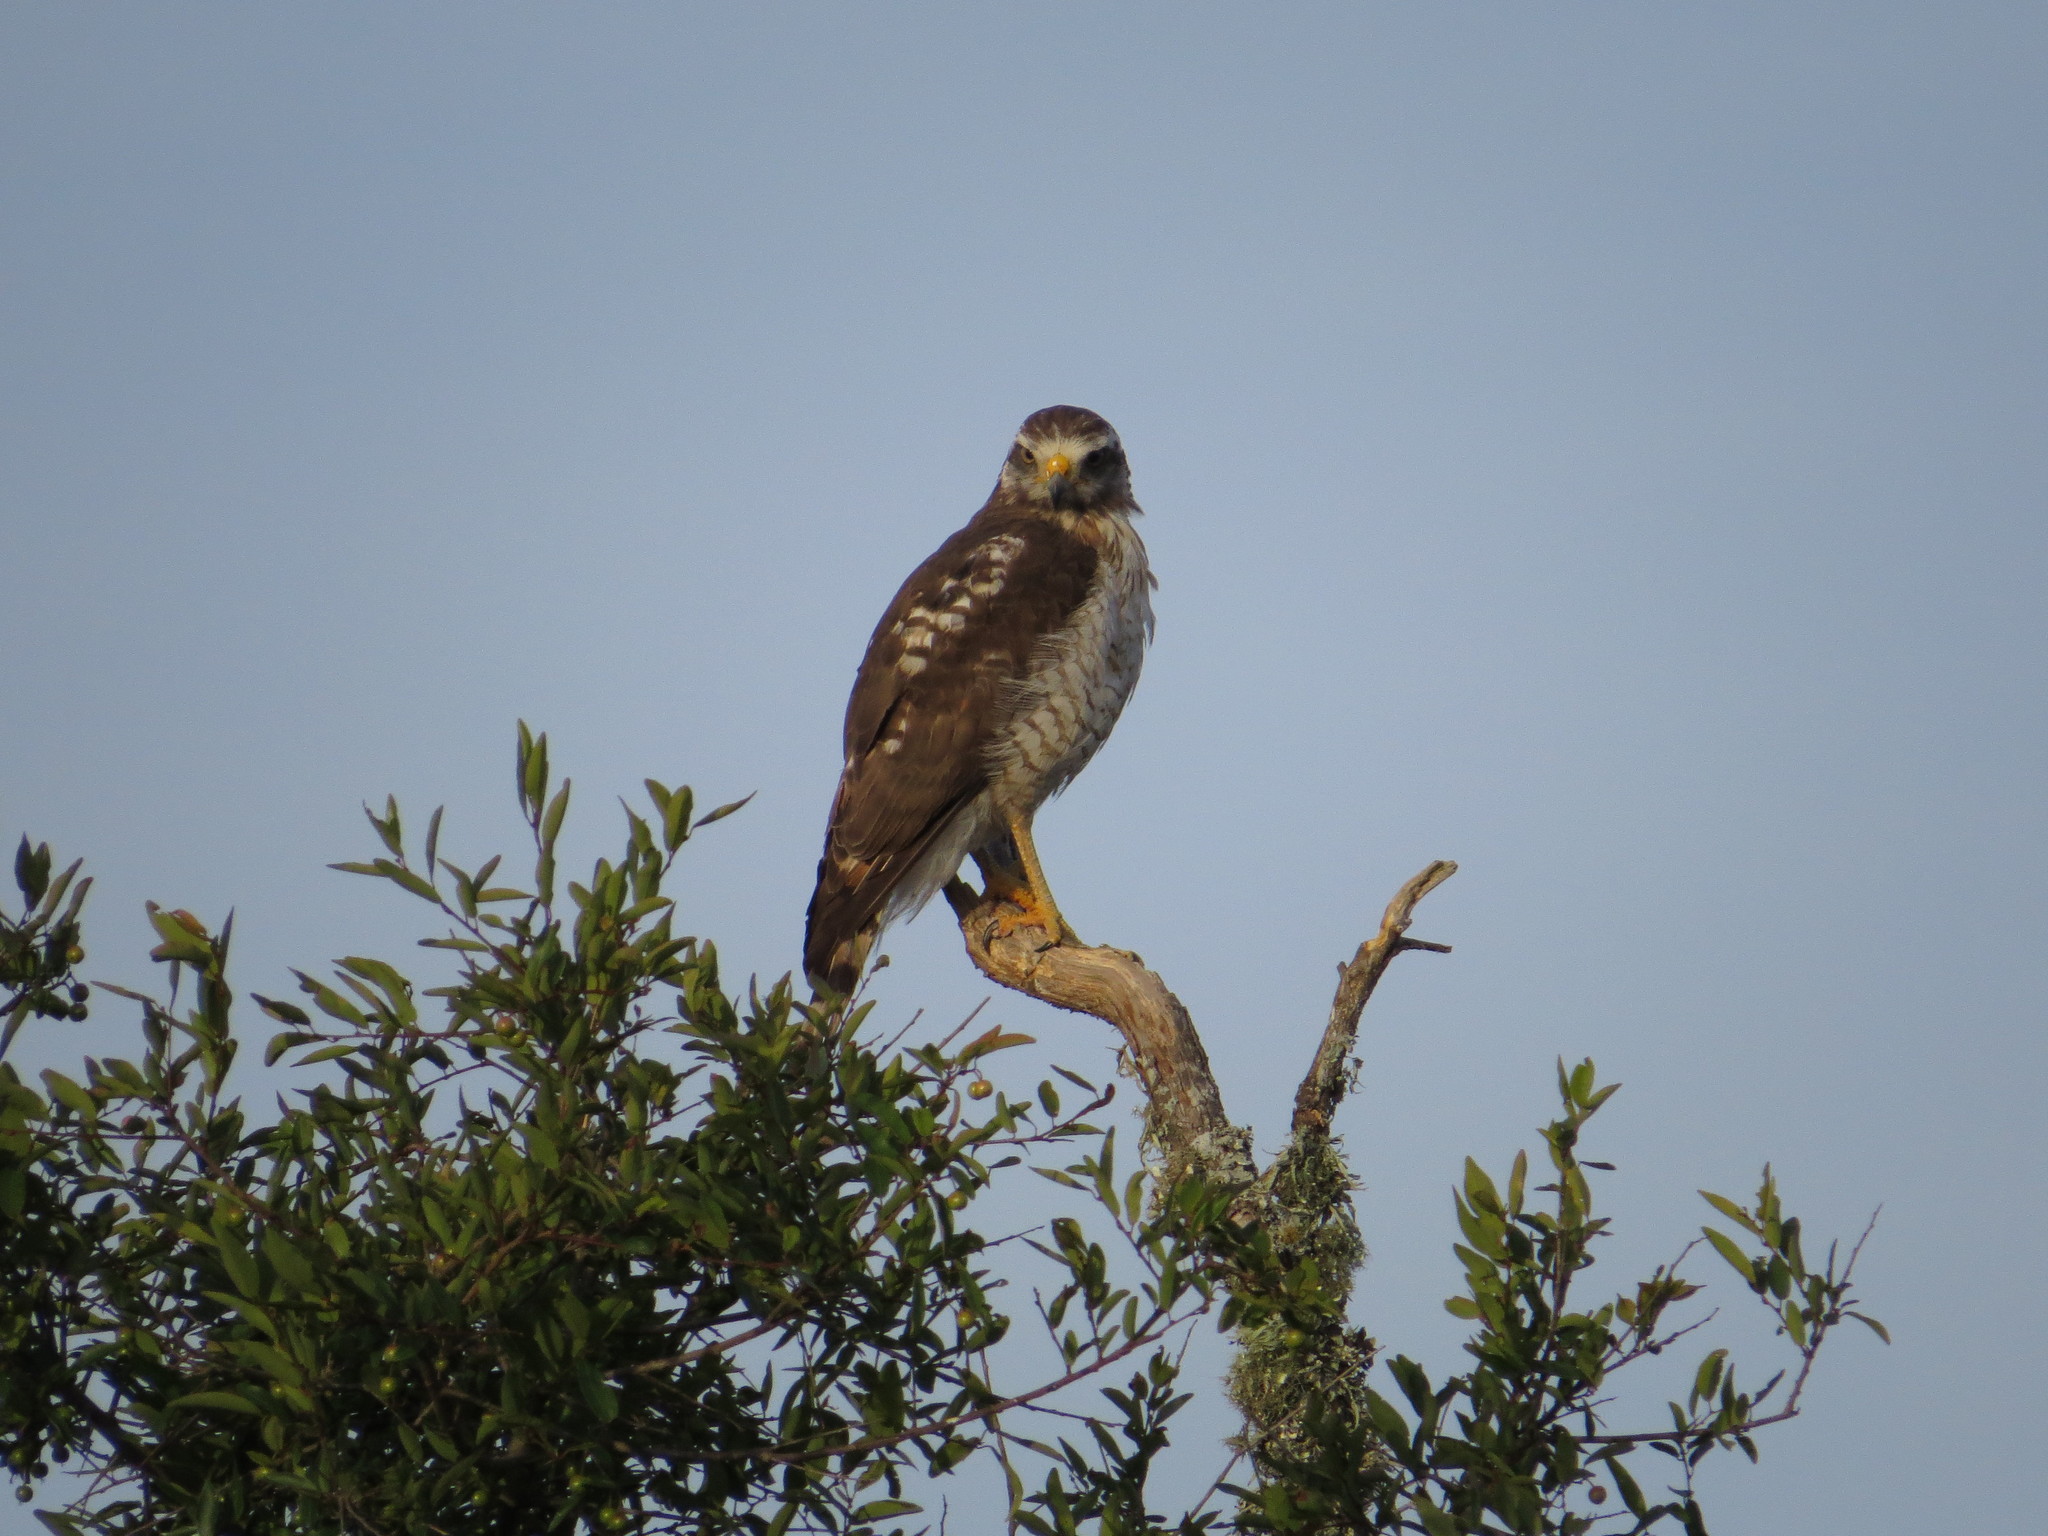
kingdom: Animalia
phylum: Chordata
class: Aves
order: Accipitriformes
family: Accipitridae
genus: Rupornis
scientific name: Rupornis magnirostris
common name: Roadside hawk
